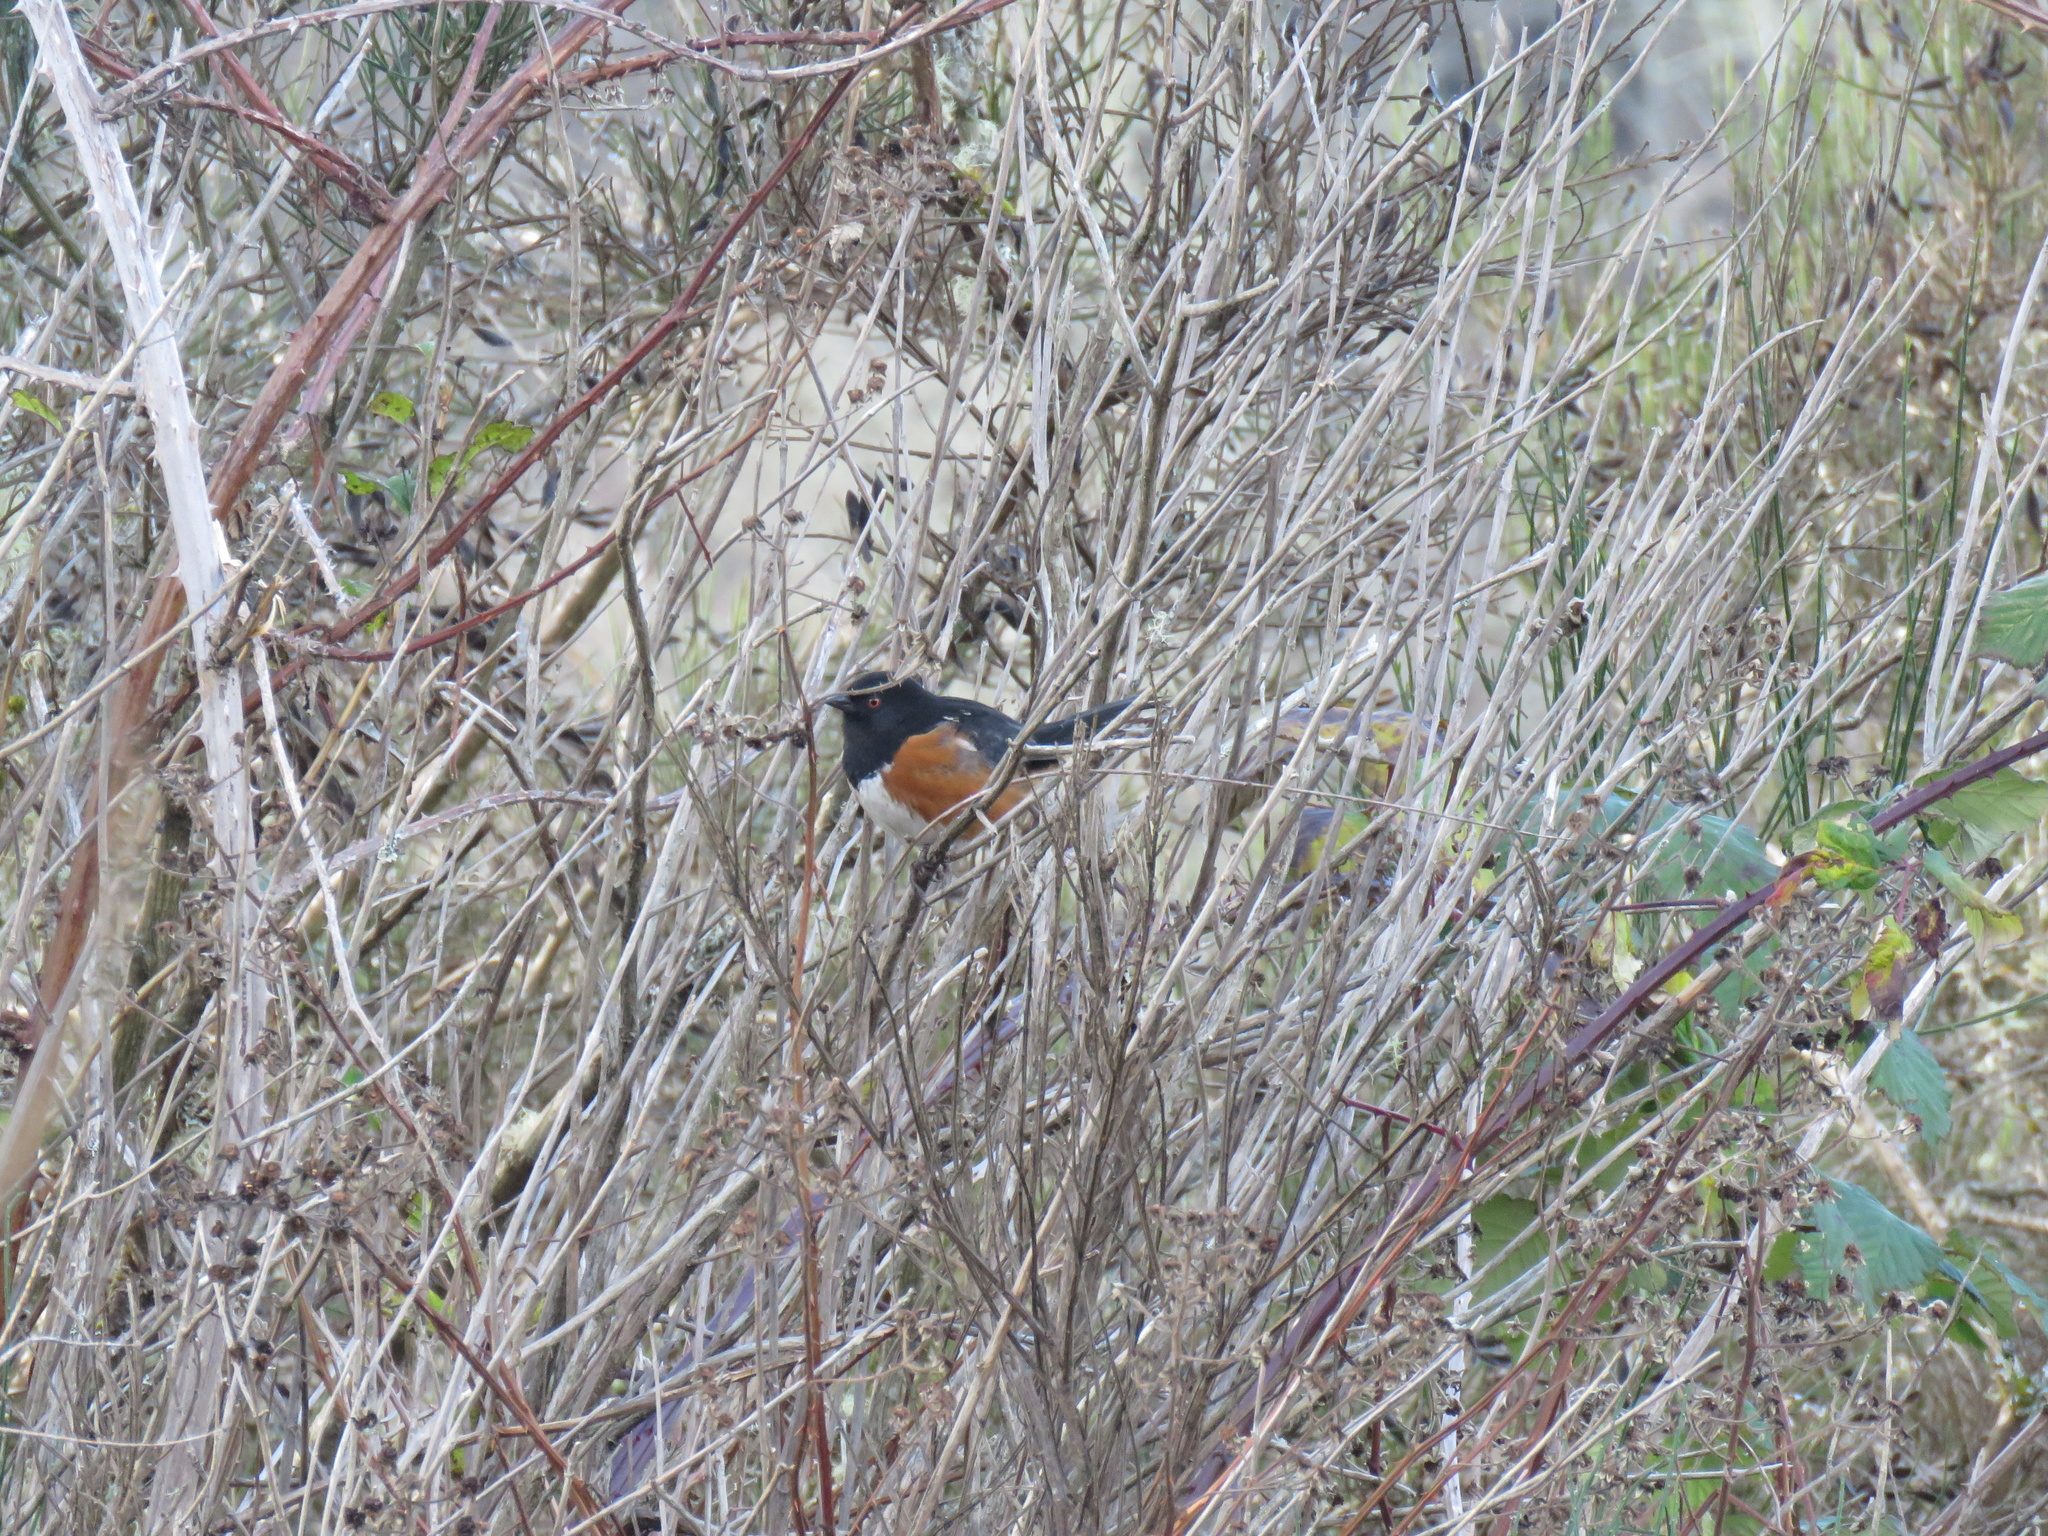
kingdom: Animalia
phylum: Chordata
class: Aves
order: Passeriformes
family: Passerellidae
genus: Pipilo
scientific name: Pipilo maculatus
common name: Spotted towhee
